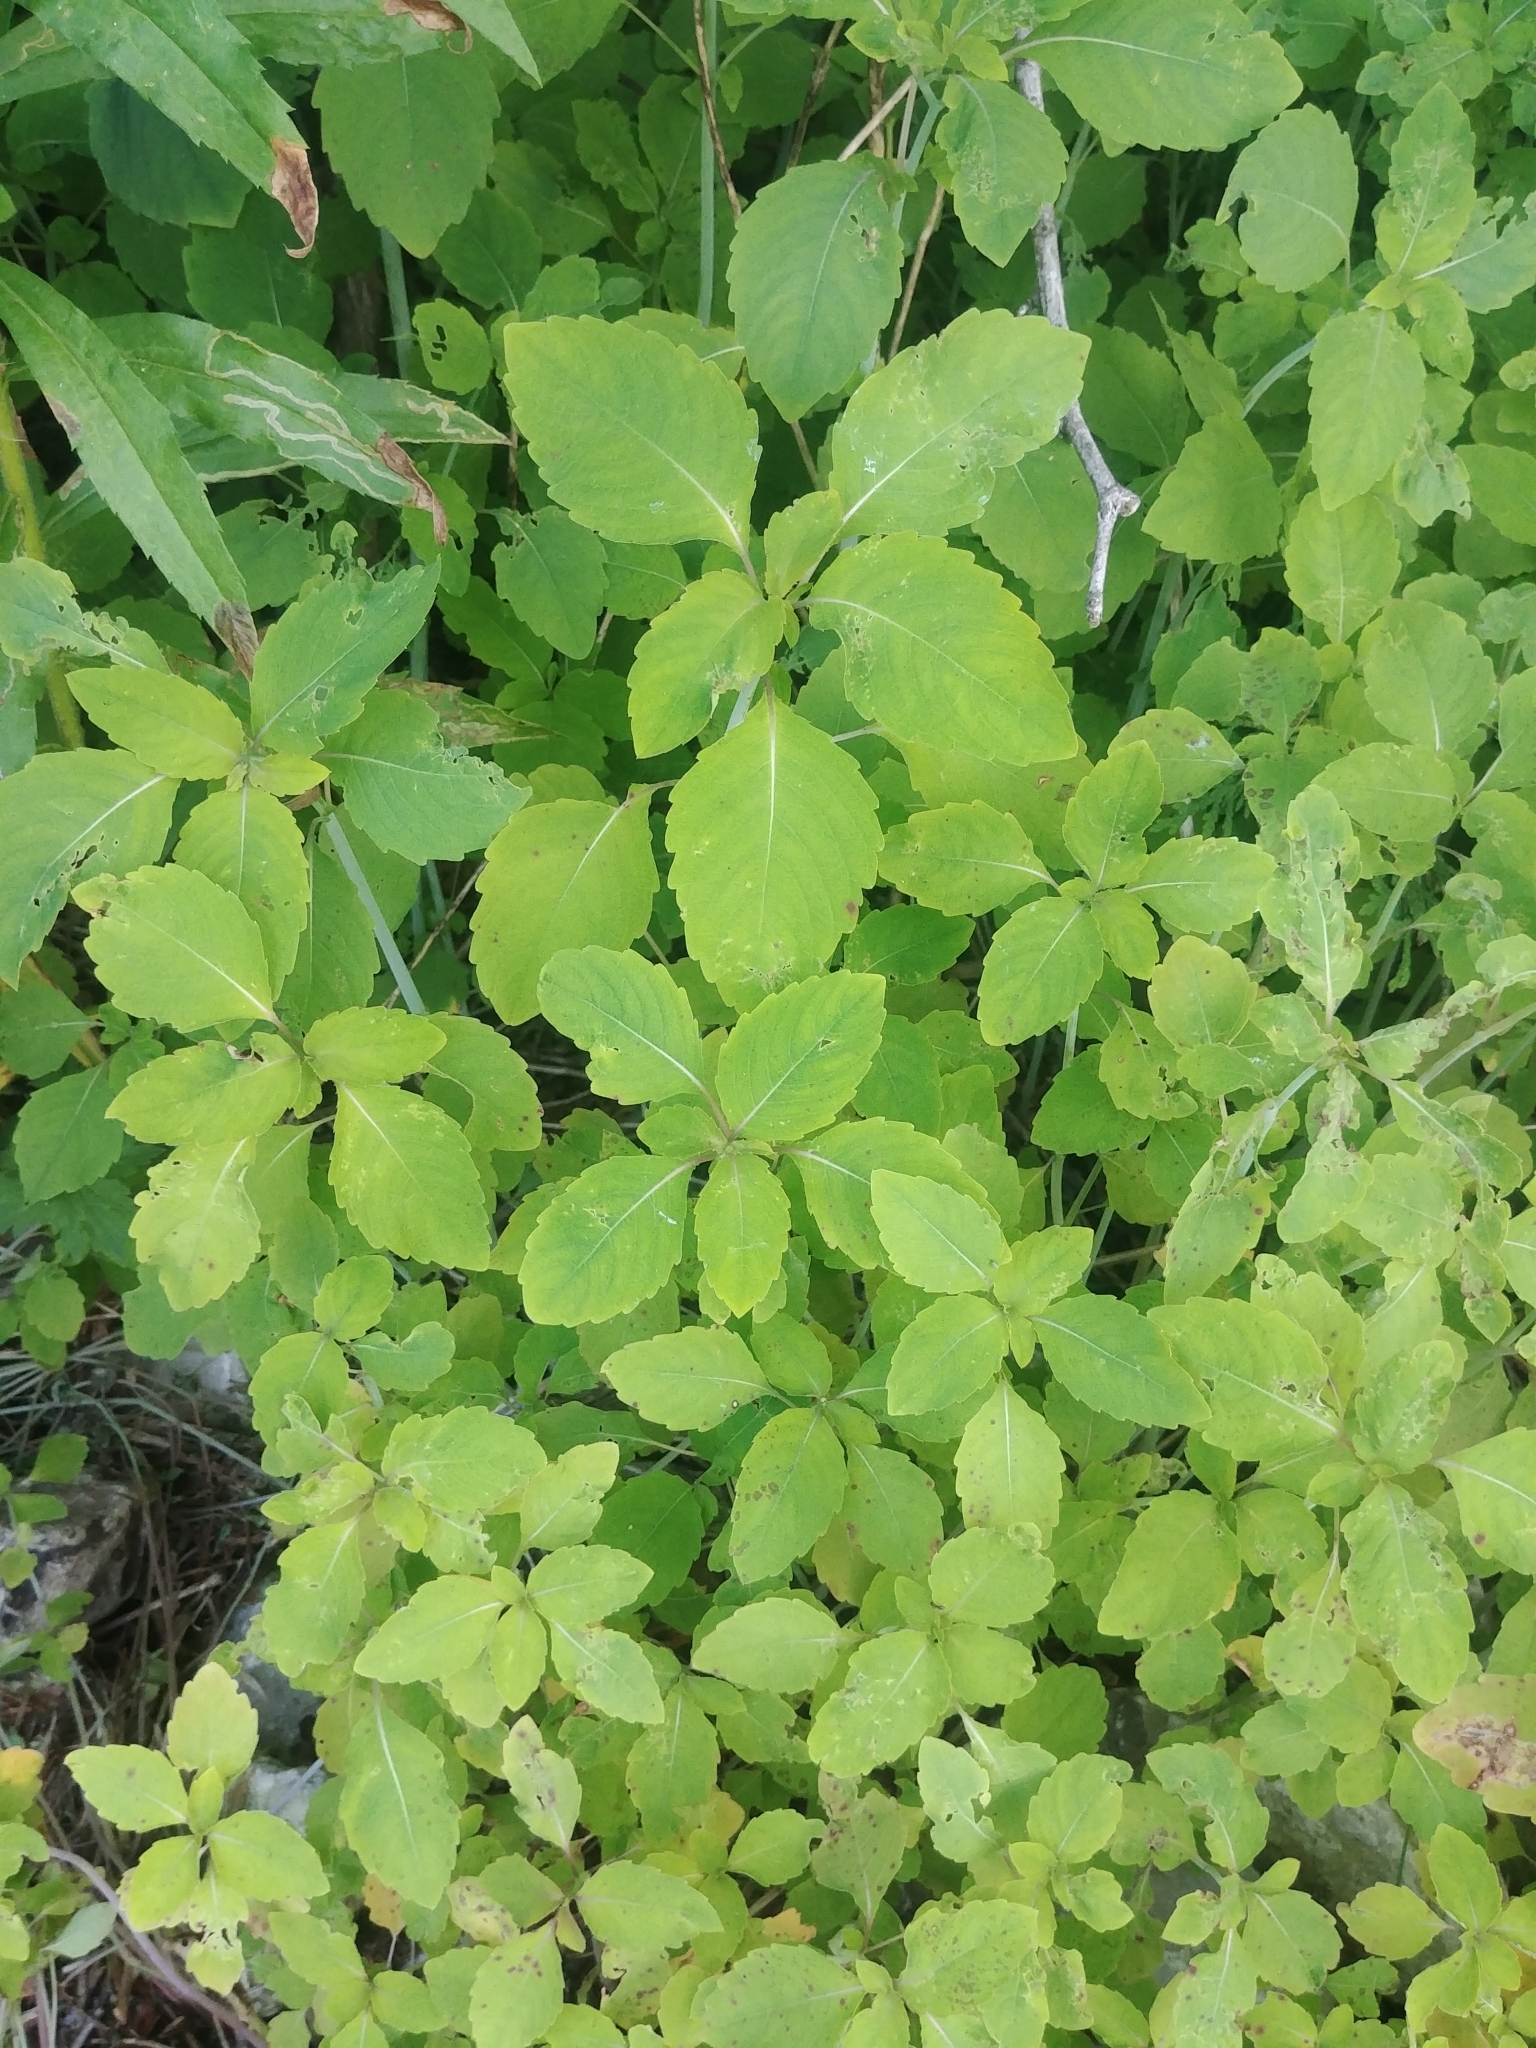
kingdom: Plantae
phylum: Tracheophyta
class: Magnoliopsida
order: Ericales
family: Balsaminaceae
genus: Impatiens
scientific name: Impatiens capensis
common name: Orange balsam
